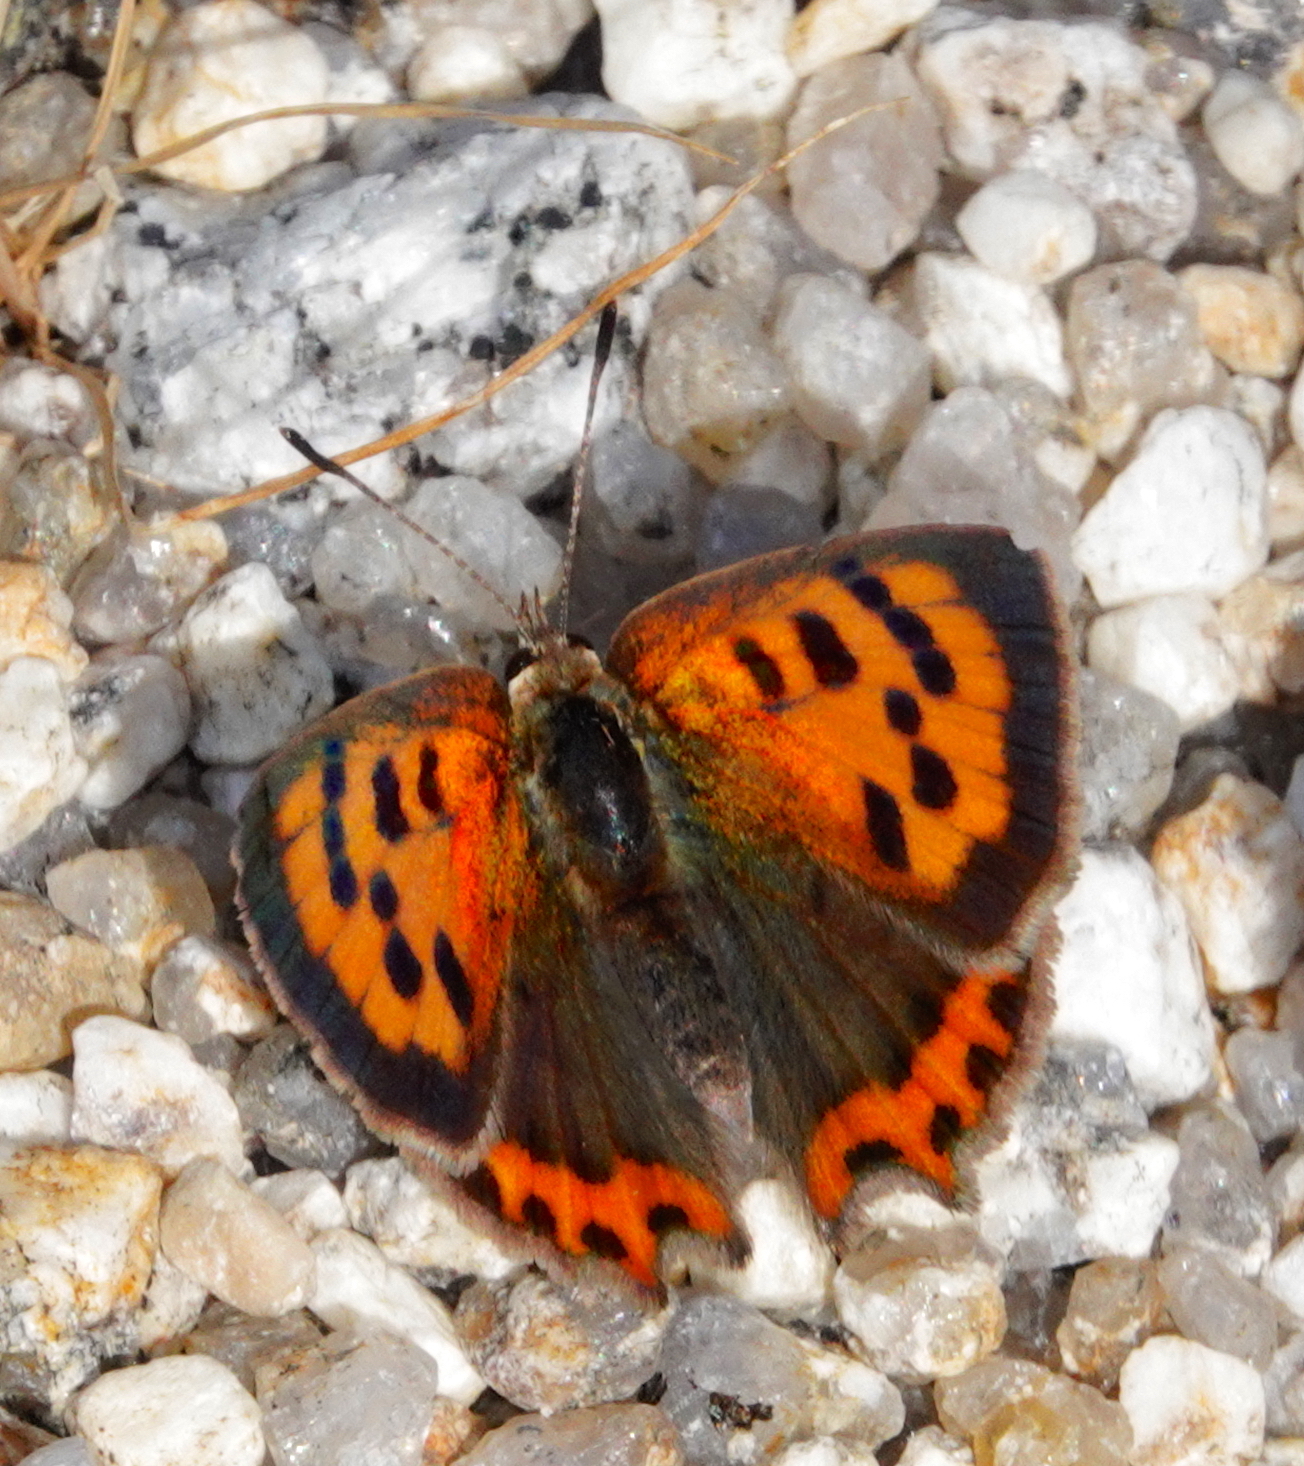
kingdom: Animalia
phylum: Arthropoda
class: Insecta
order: Lepidoptera
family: Lycaenidae
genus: Lycaena
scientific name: Lycaena phlaeas
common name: Small copper
